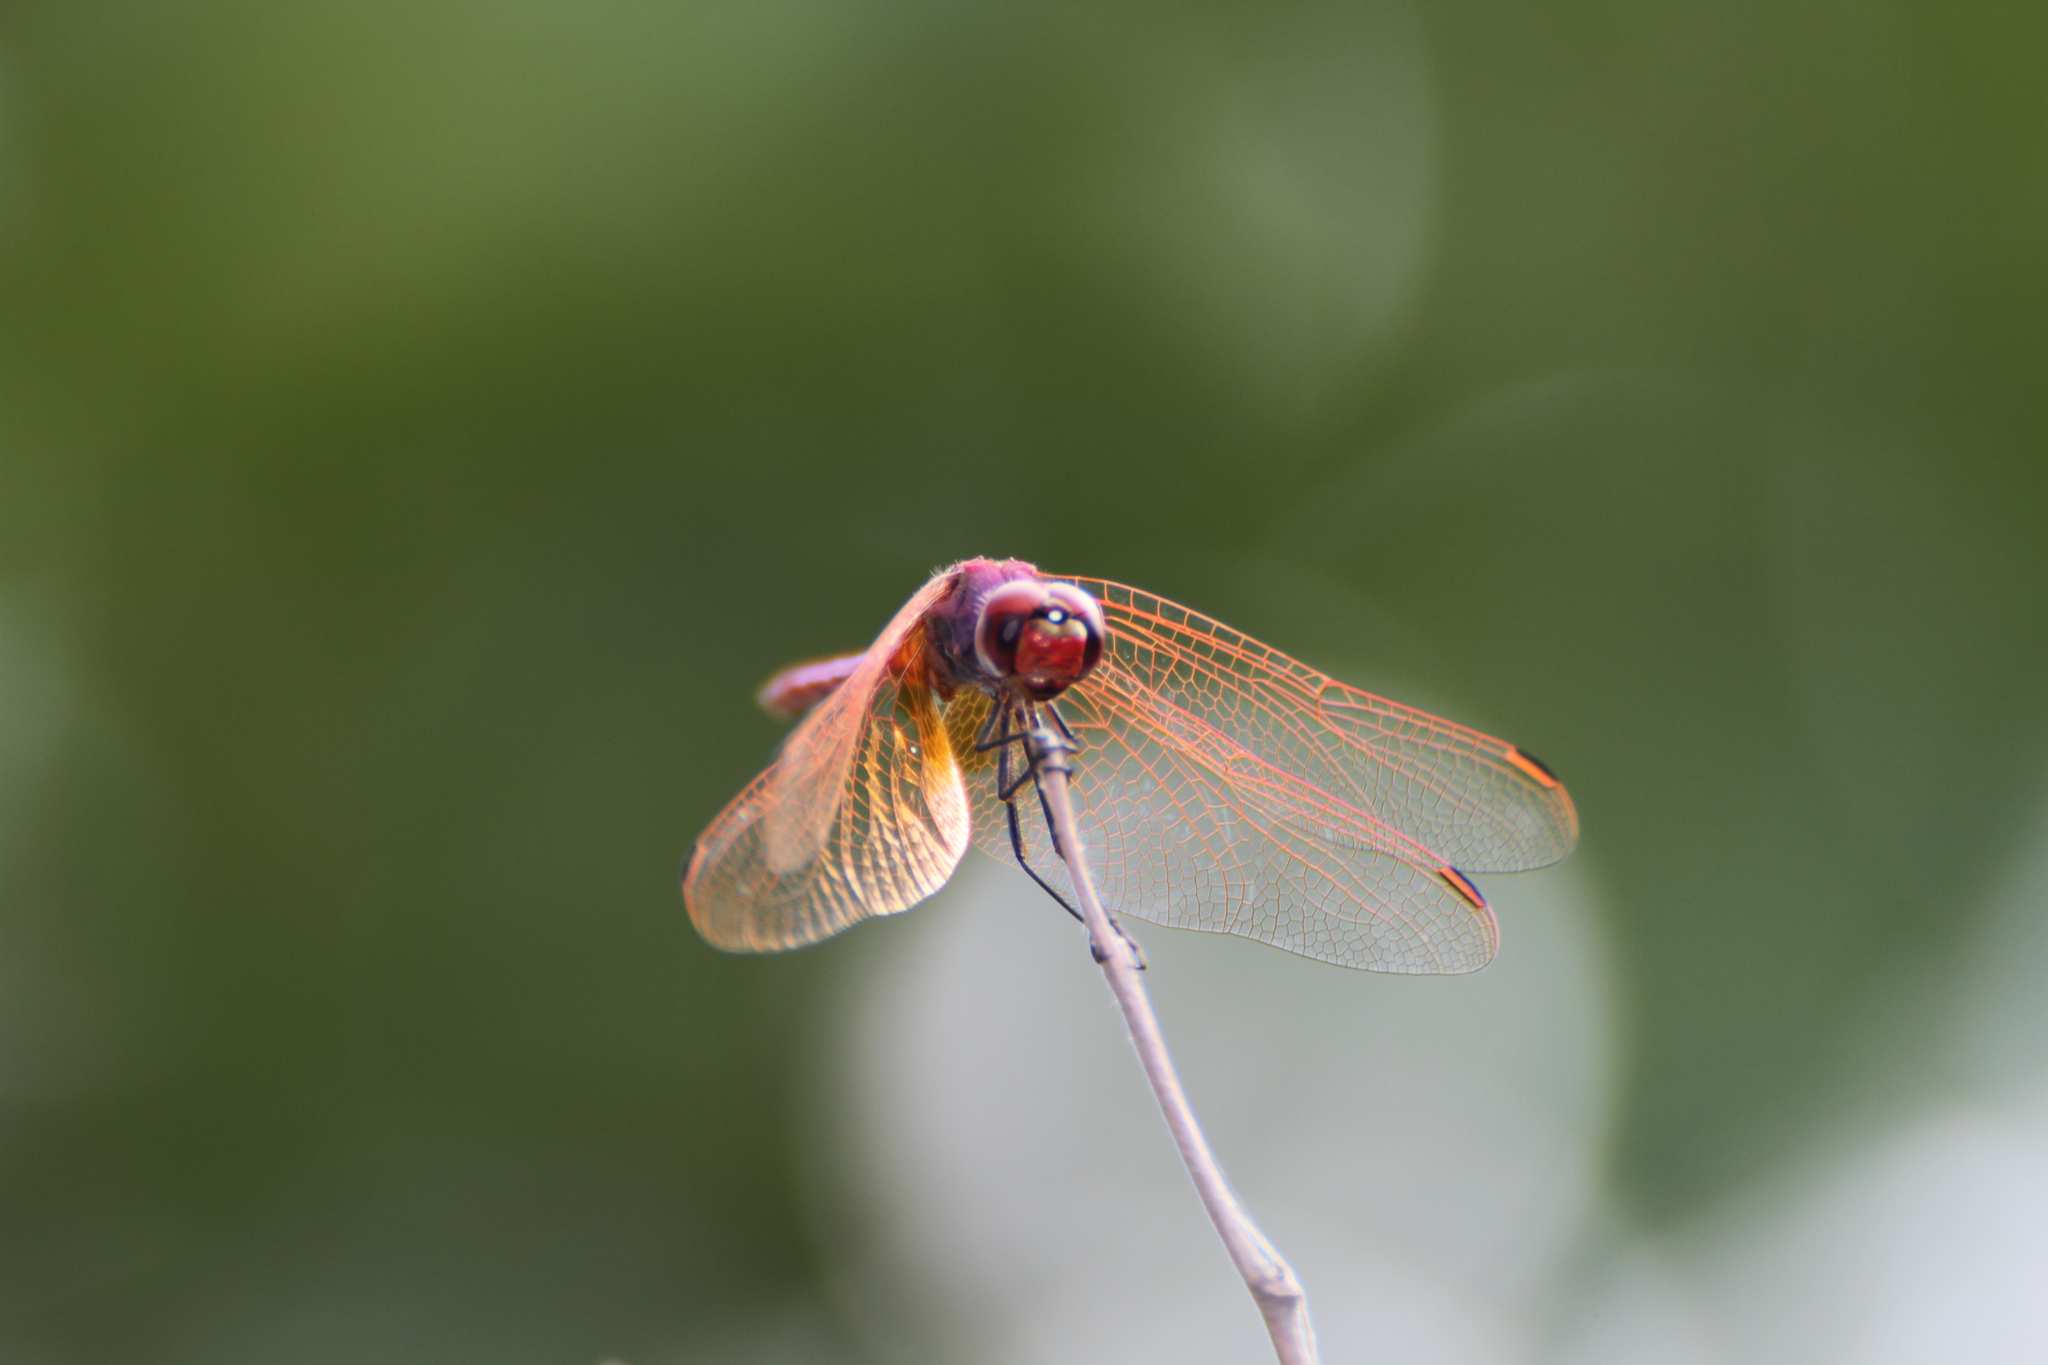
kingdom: Animalia
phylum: Arthropoda
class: Insecta
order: Odonata
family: Libellulidae
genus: Trithemis
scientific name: Trithemis annulata
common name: Violet dropwing
